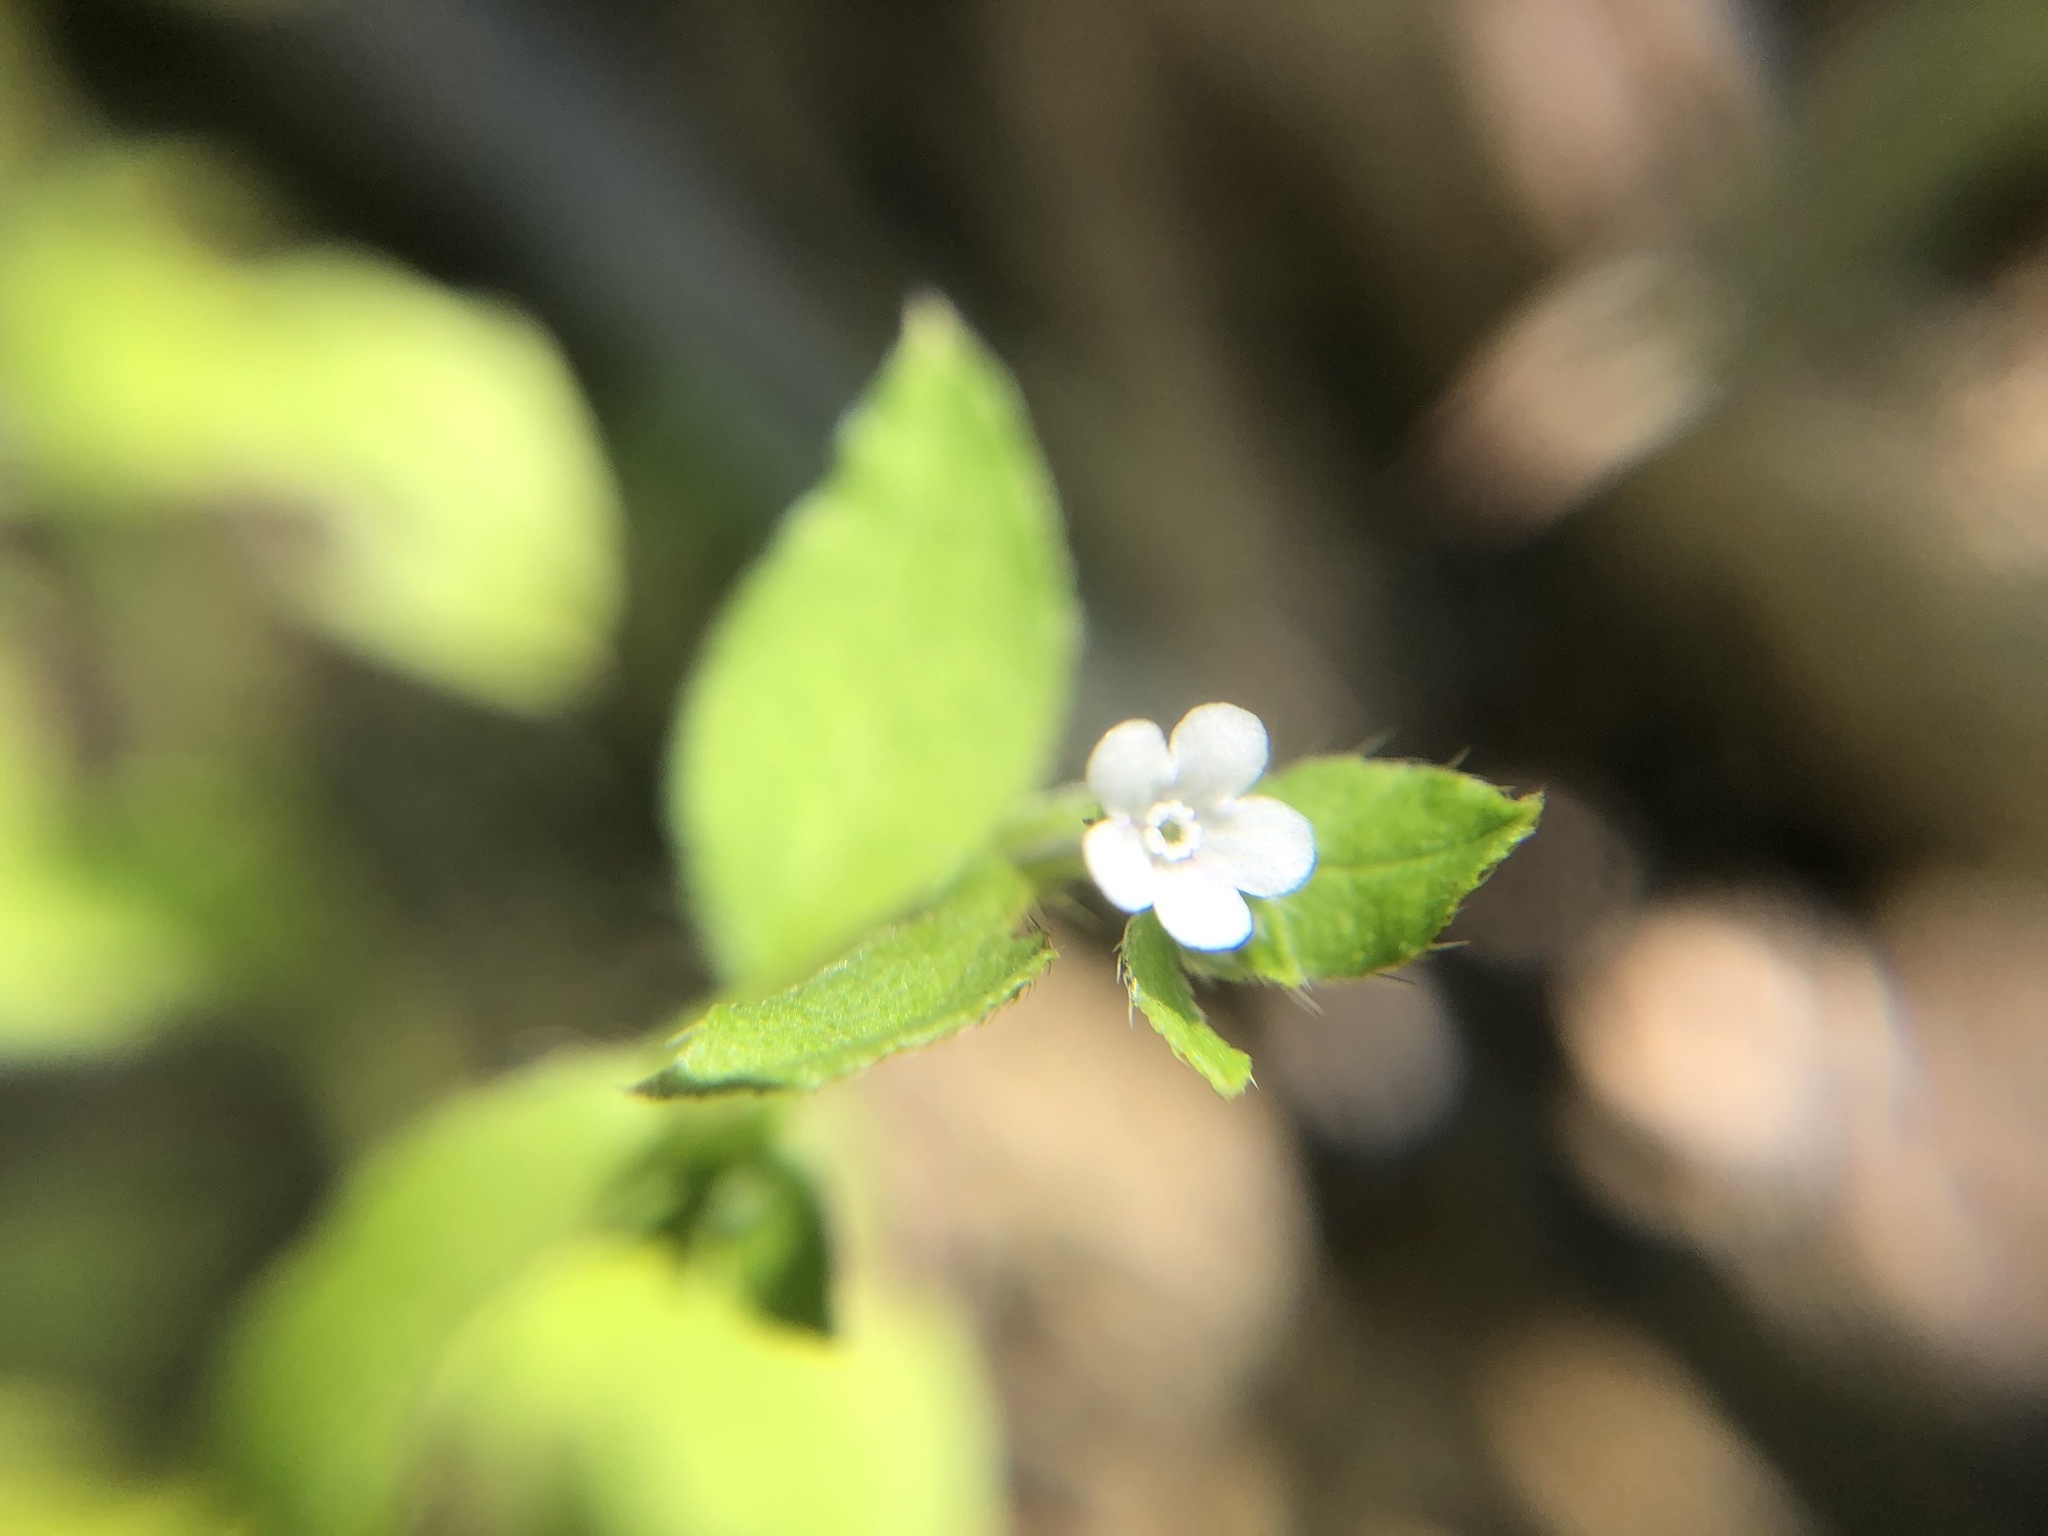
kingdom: Plantae
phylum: Tracheophyta
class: Magnoliopsida
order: Boraginales
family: Boraginaceae
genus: Bothriospermum
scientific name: Bothriospermum zeylanicum
